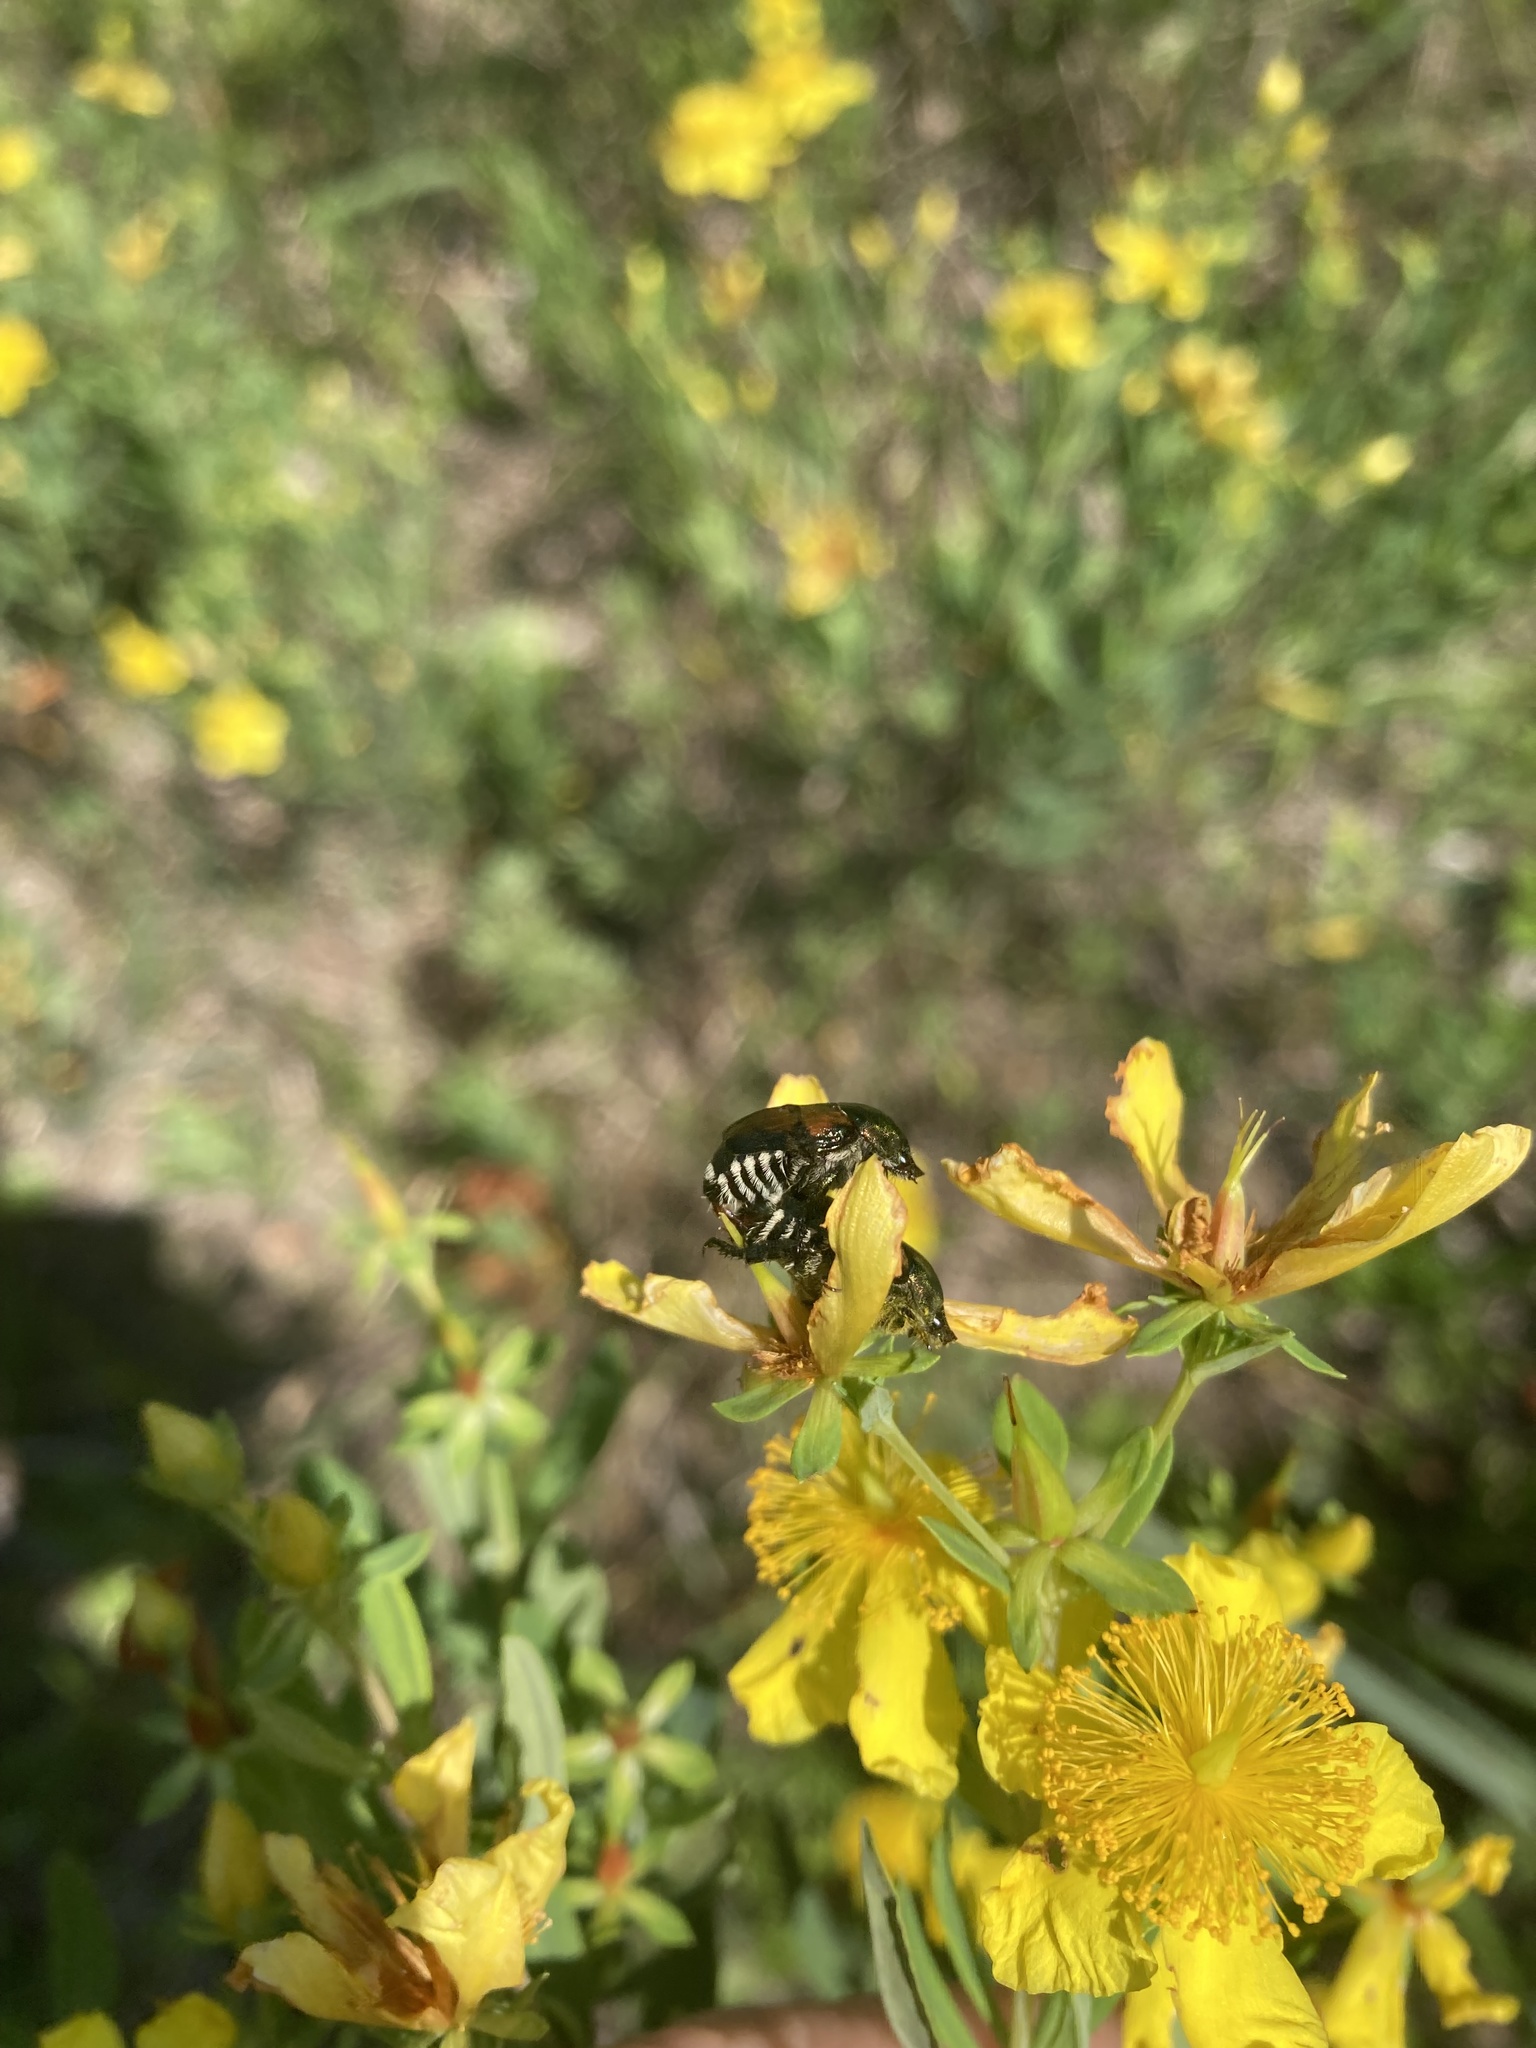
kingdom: Animalia
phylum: Arthropoda
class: Insecta
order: Coleoptera
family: Scarabaeidae
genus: Popillia
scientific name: Popillia japonica
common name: Japanese beetle
